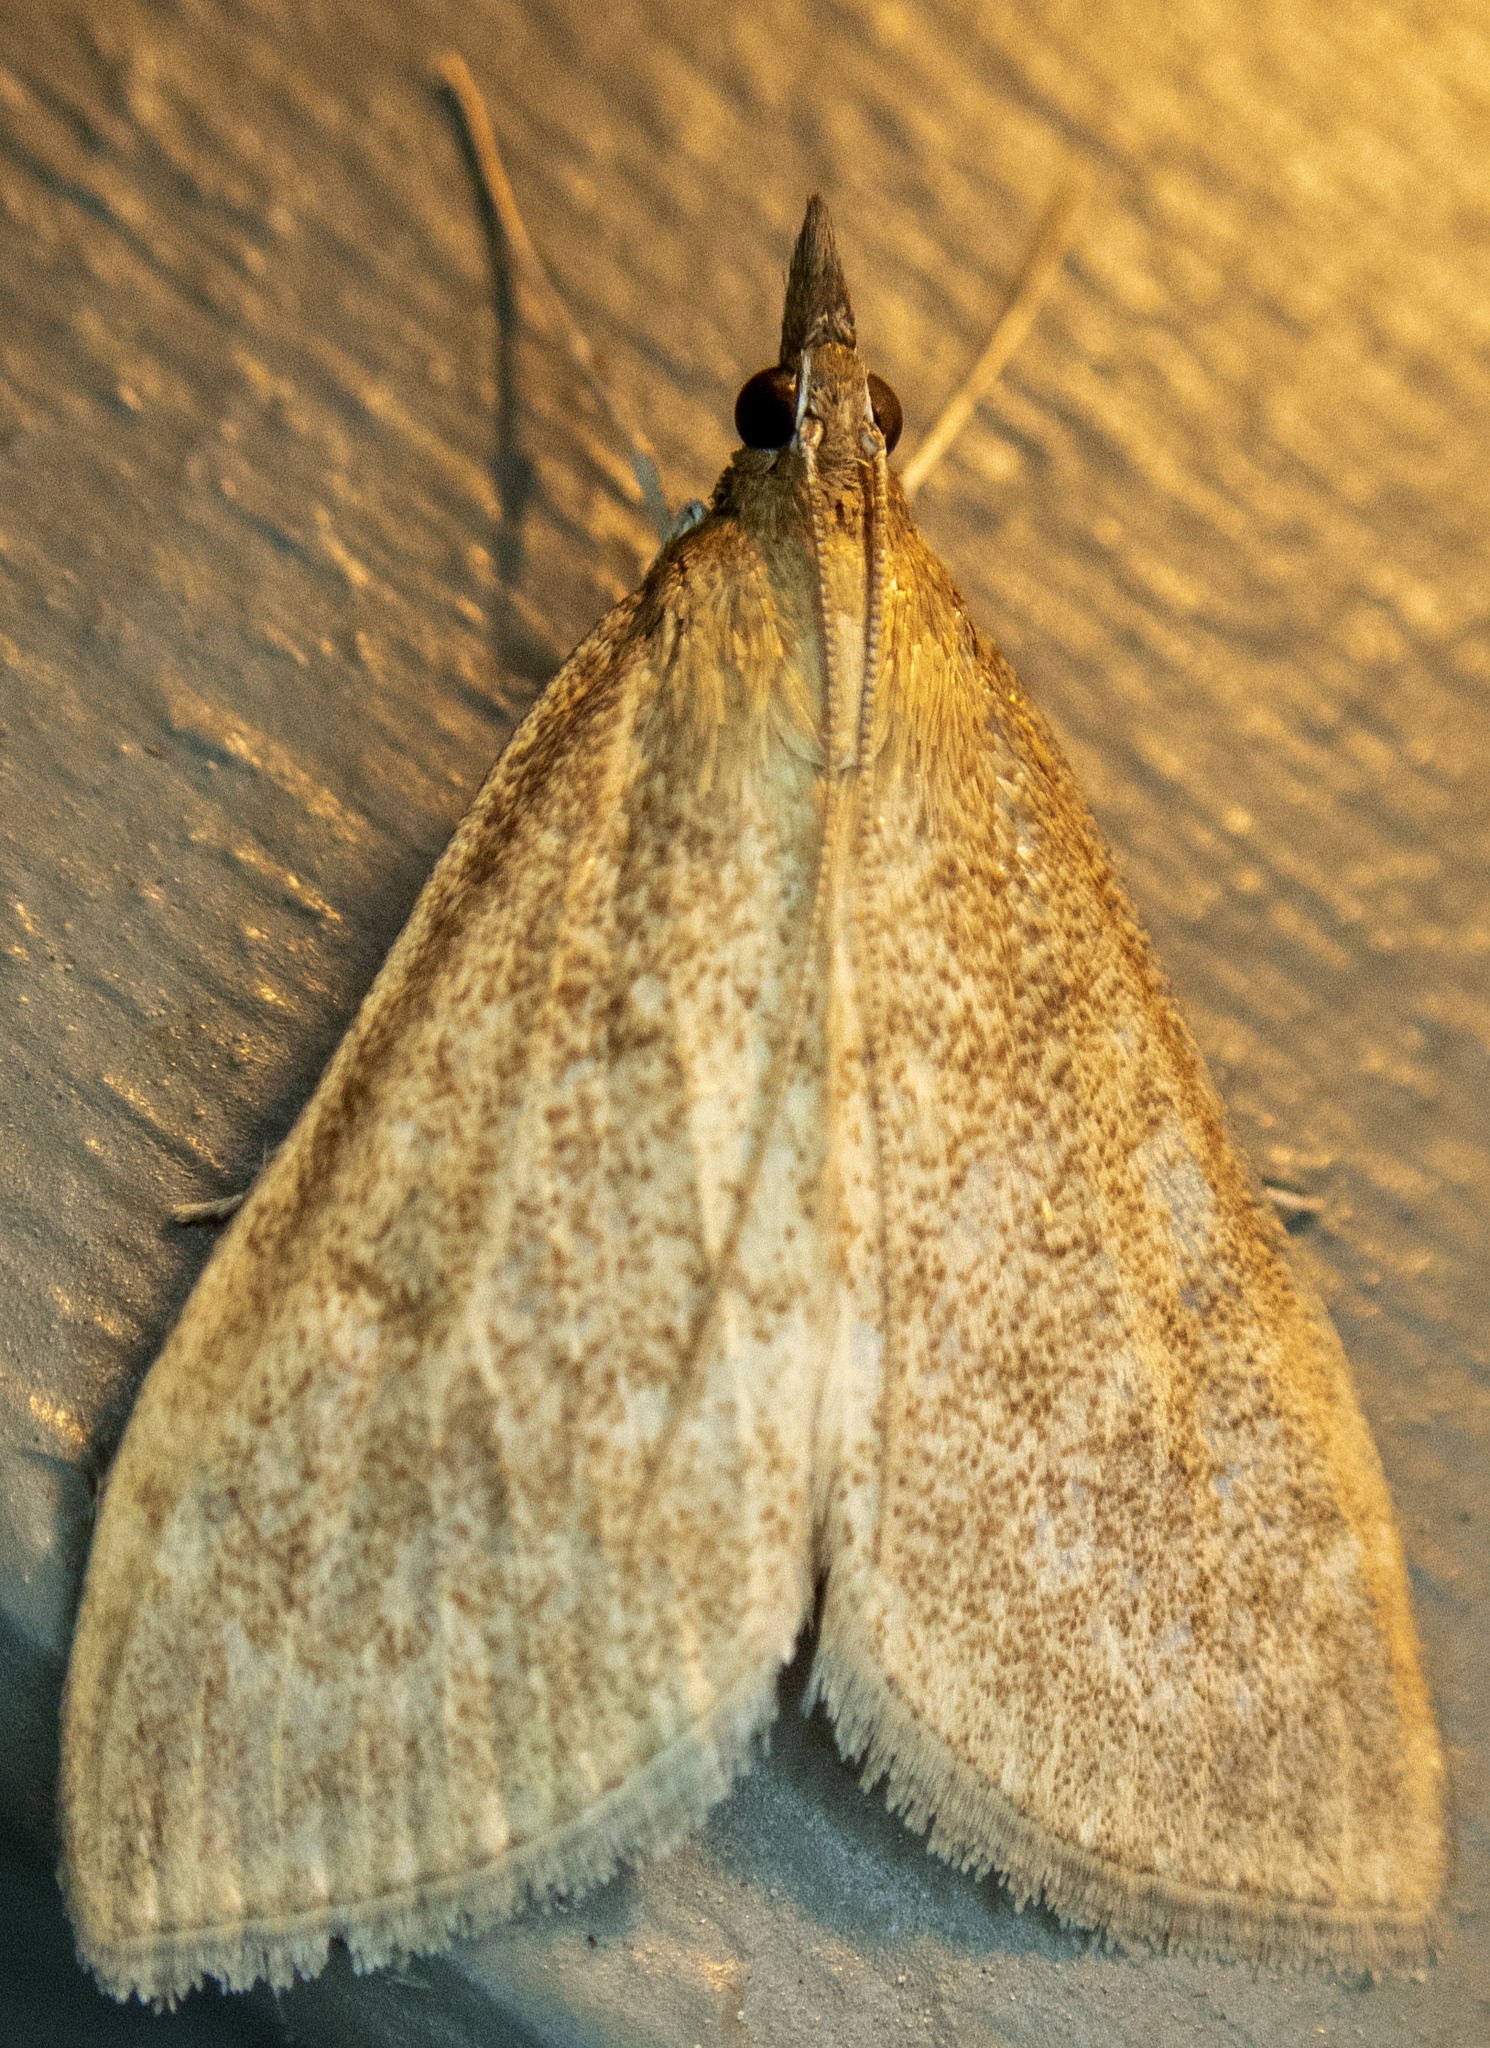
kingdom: Animalia
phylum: Arthropoda
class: Insecta
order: Lepidoptera
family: Crambidae
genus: Saucrobotys
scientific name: Saucrobotys futilalis
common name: Dogbane saucrobotys moth
